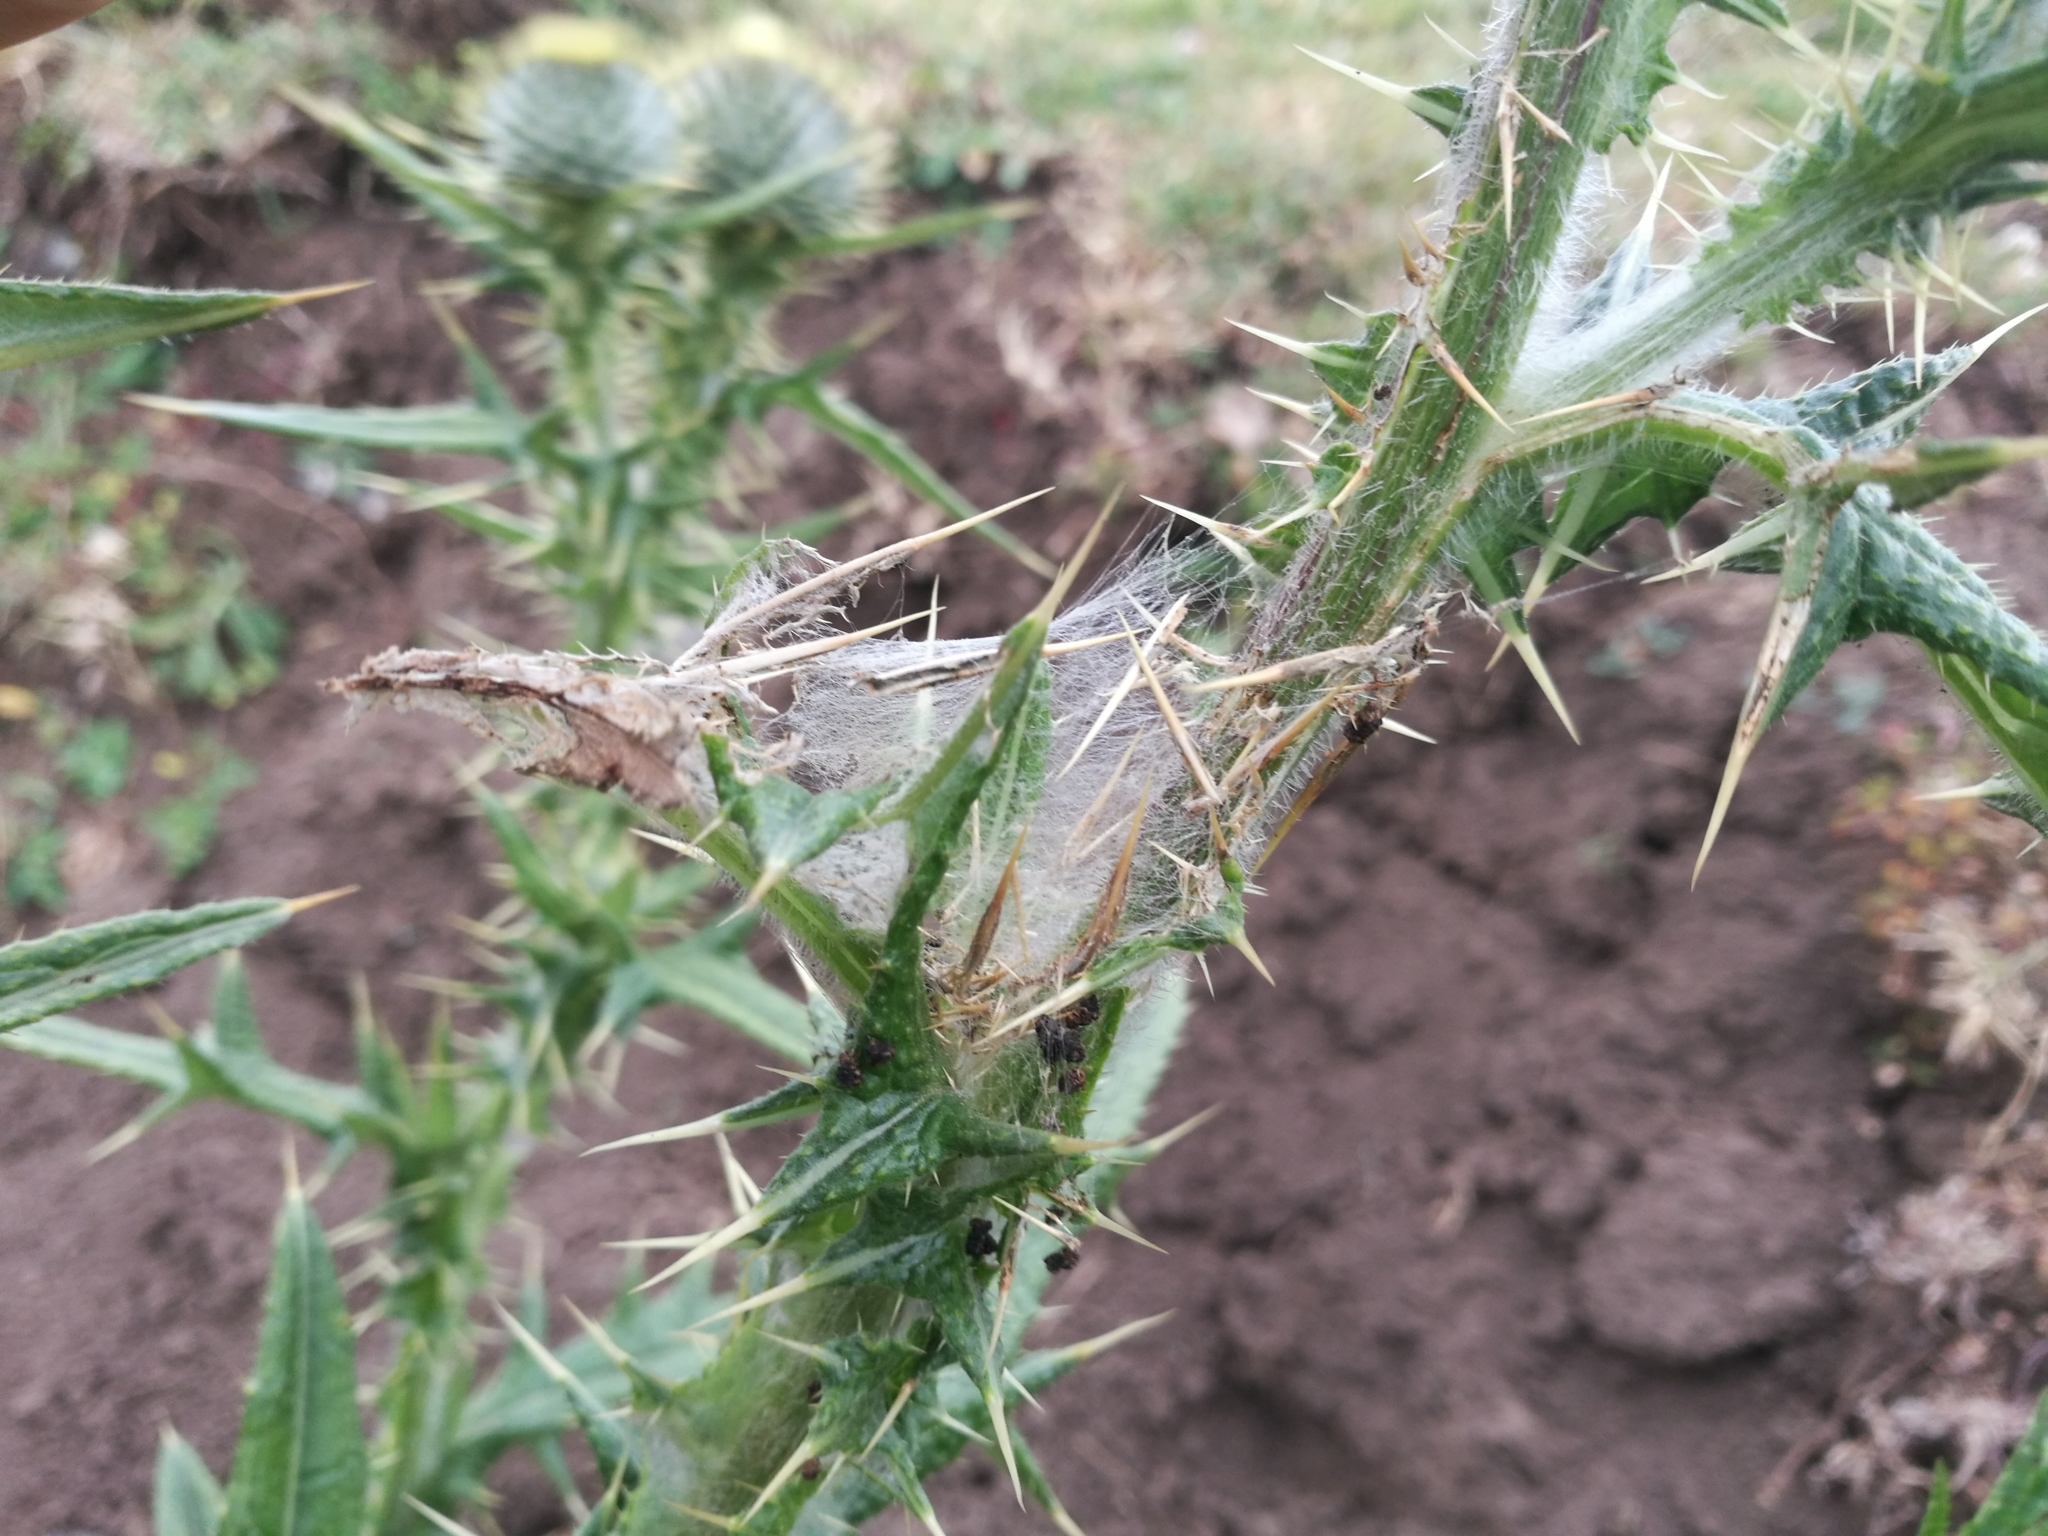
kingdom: Animalia
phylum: Arthropoda
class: Insecta
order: Lepidoptera
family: Nymphalidae
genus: Vanessa
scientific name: Vanessa cardui
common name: Painted lady
